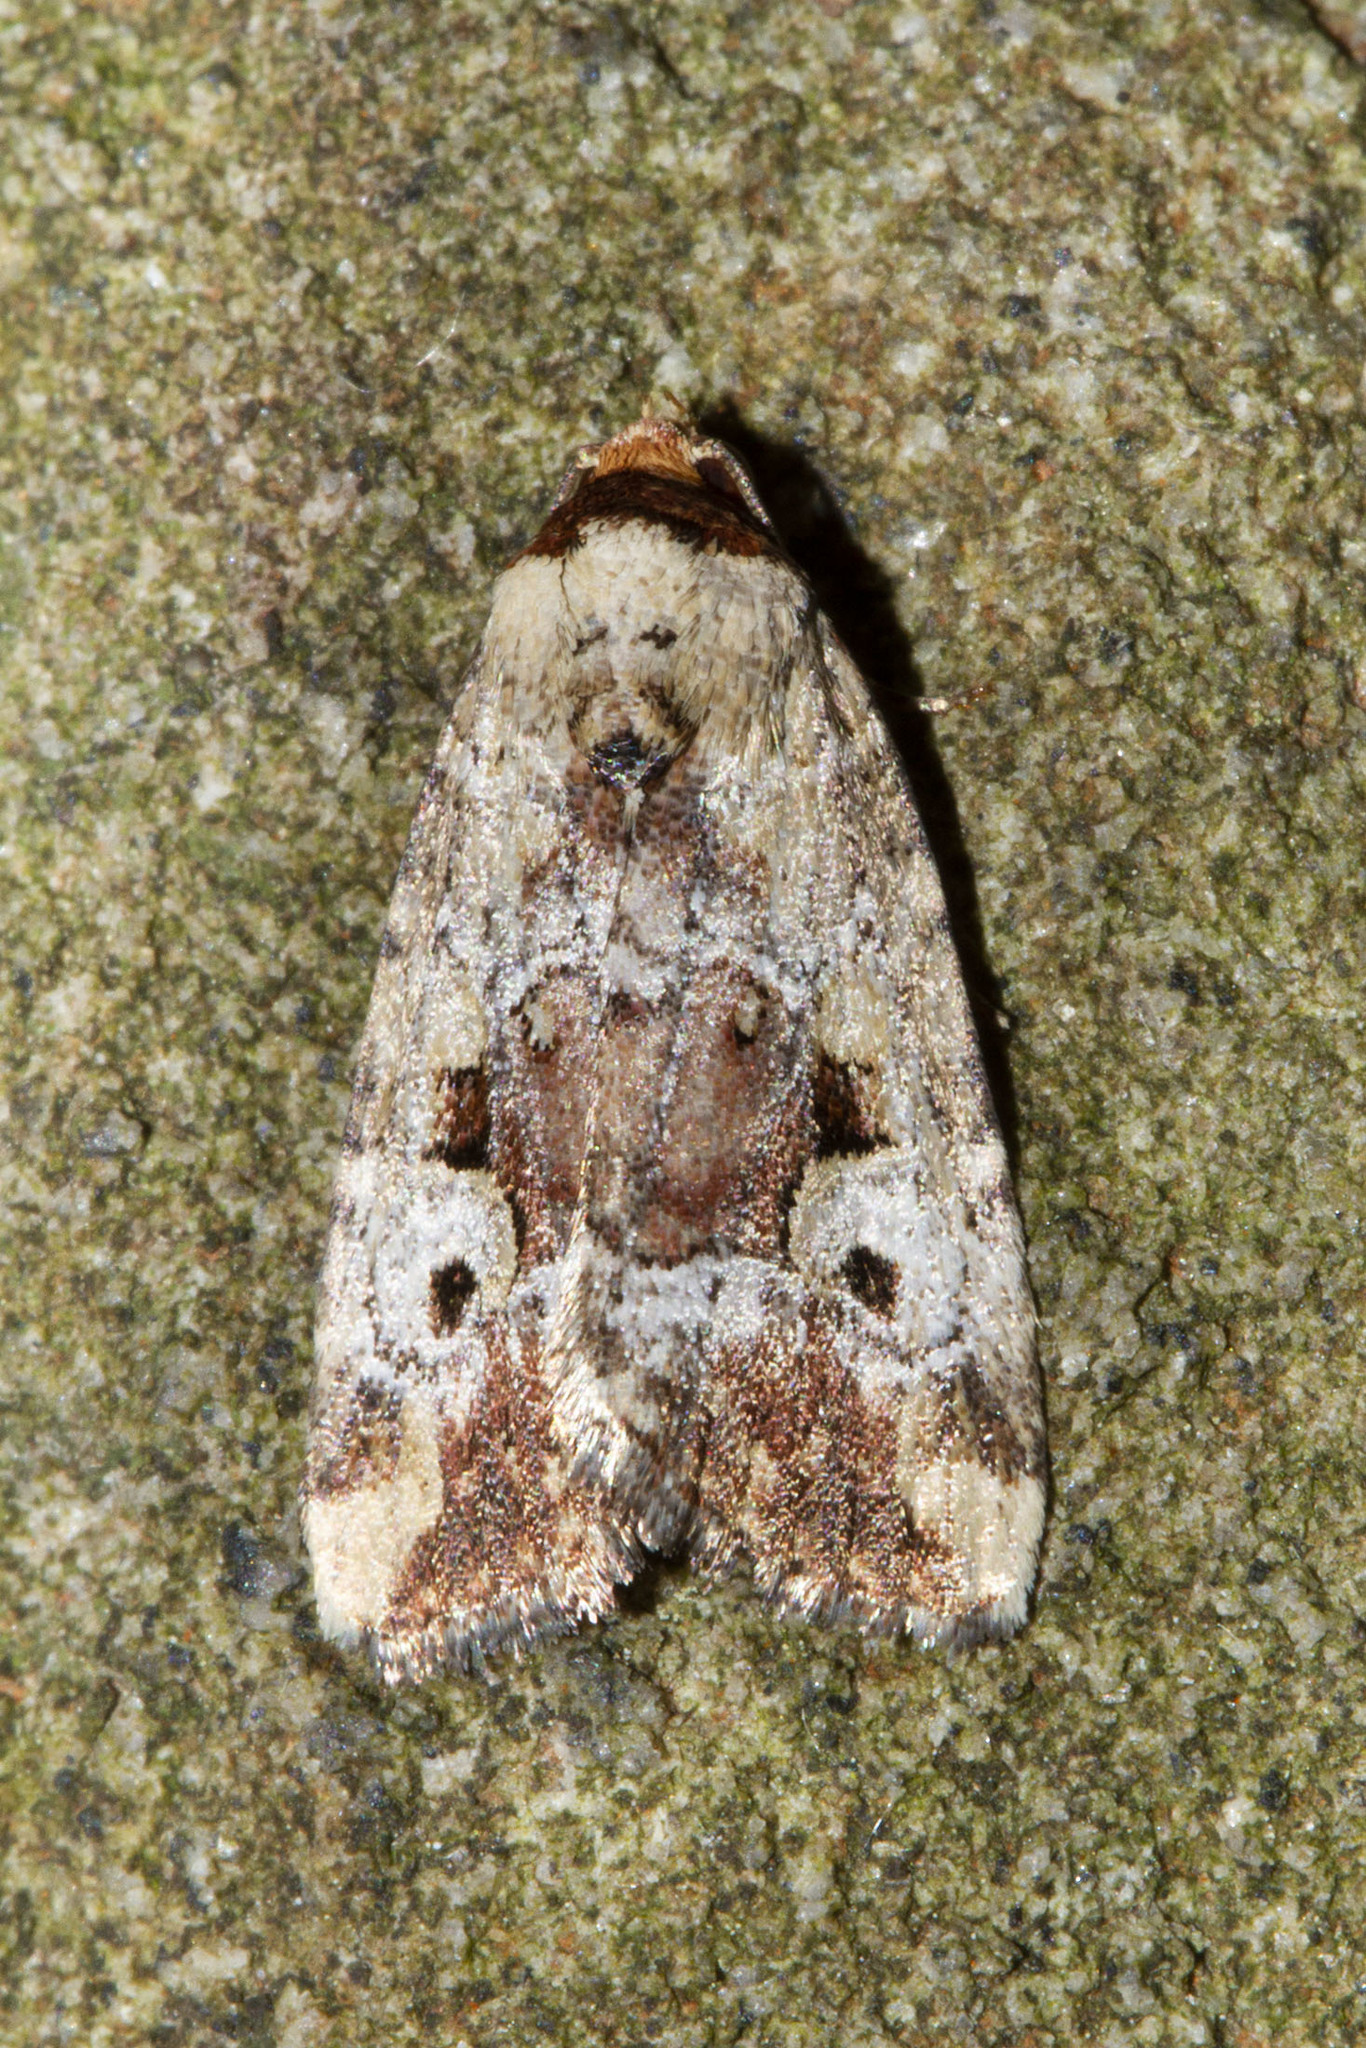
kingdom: Animalia
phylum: Arthropoda
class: Insecta
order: Lepidoptera
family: Noctuidae
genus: Elaphria
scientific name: Elaphria alapallida
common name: Pale-winged midget
